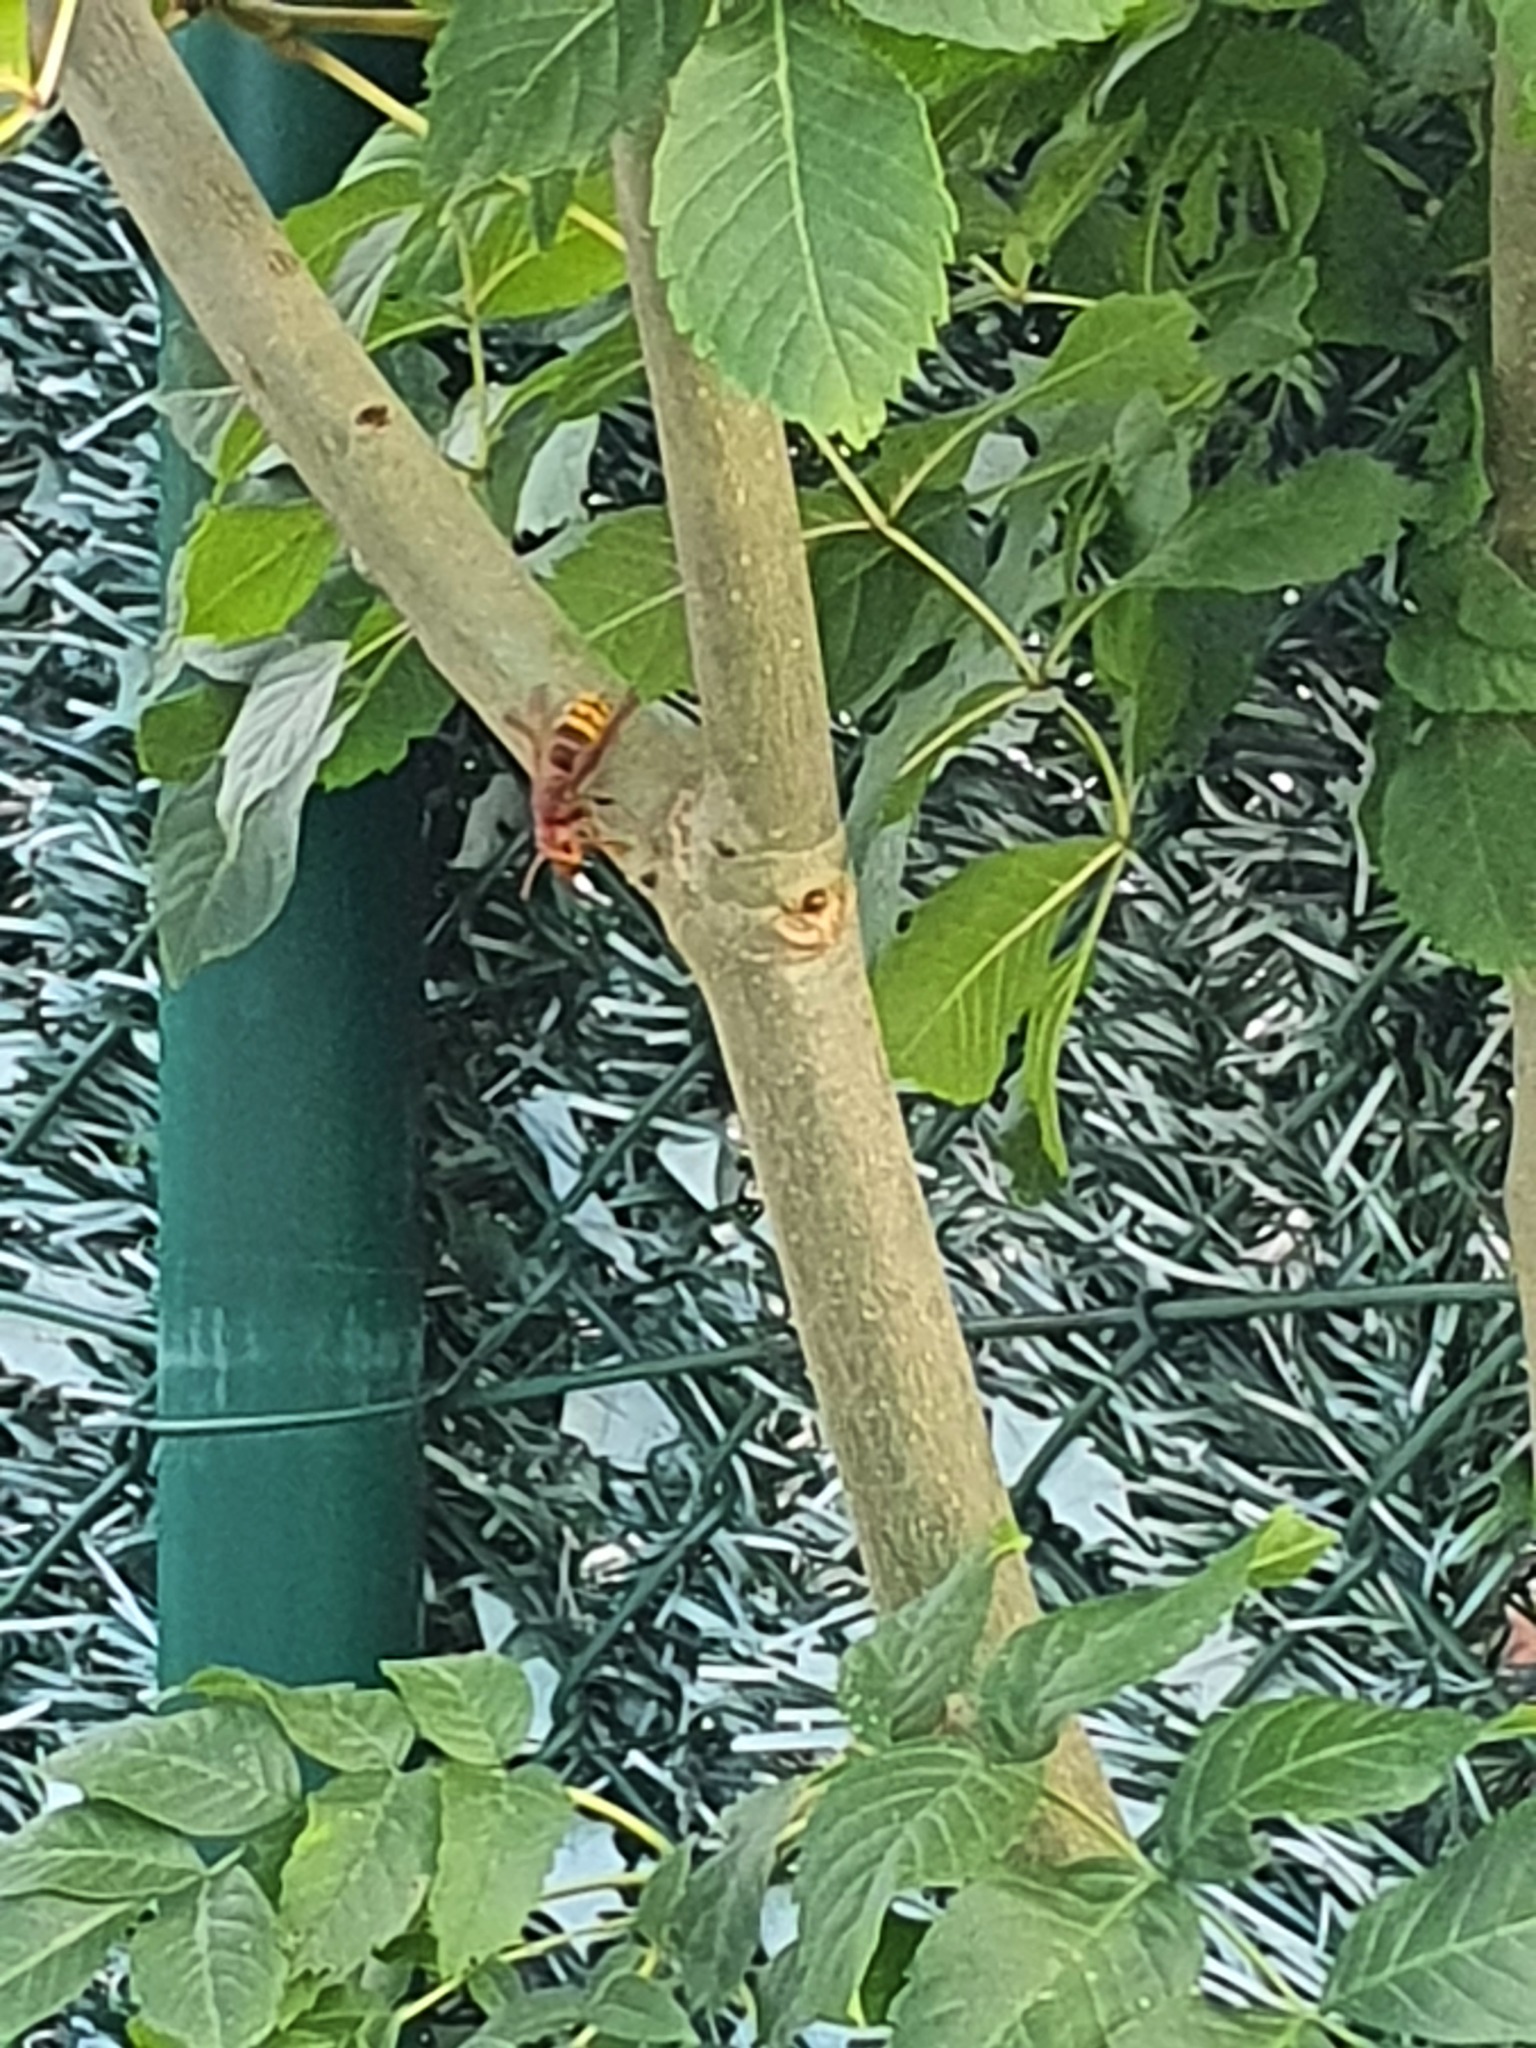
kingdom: Animalia
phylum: Arthropoda
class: Insecta
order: Hymenoptera
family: Vespidae
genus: Vespa
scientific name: Vespa crabro
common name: Hornet
